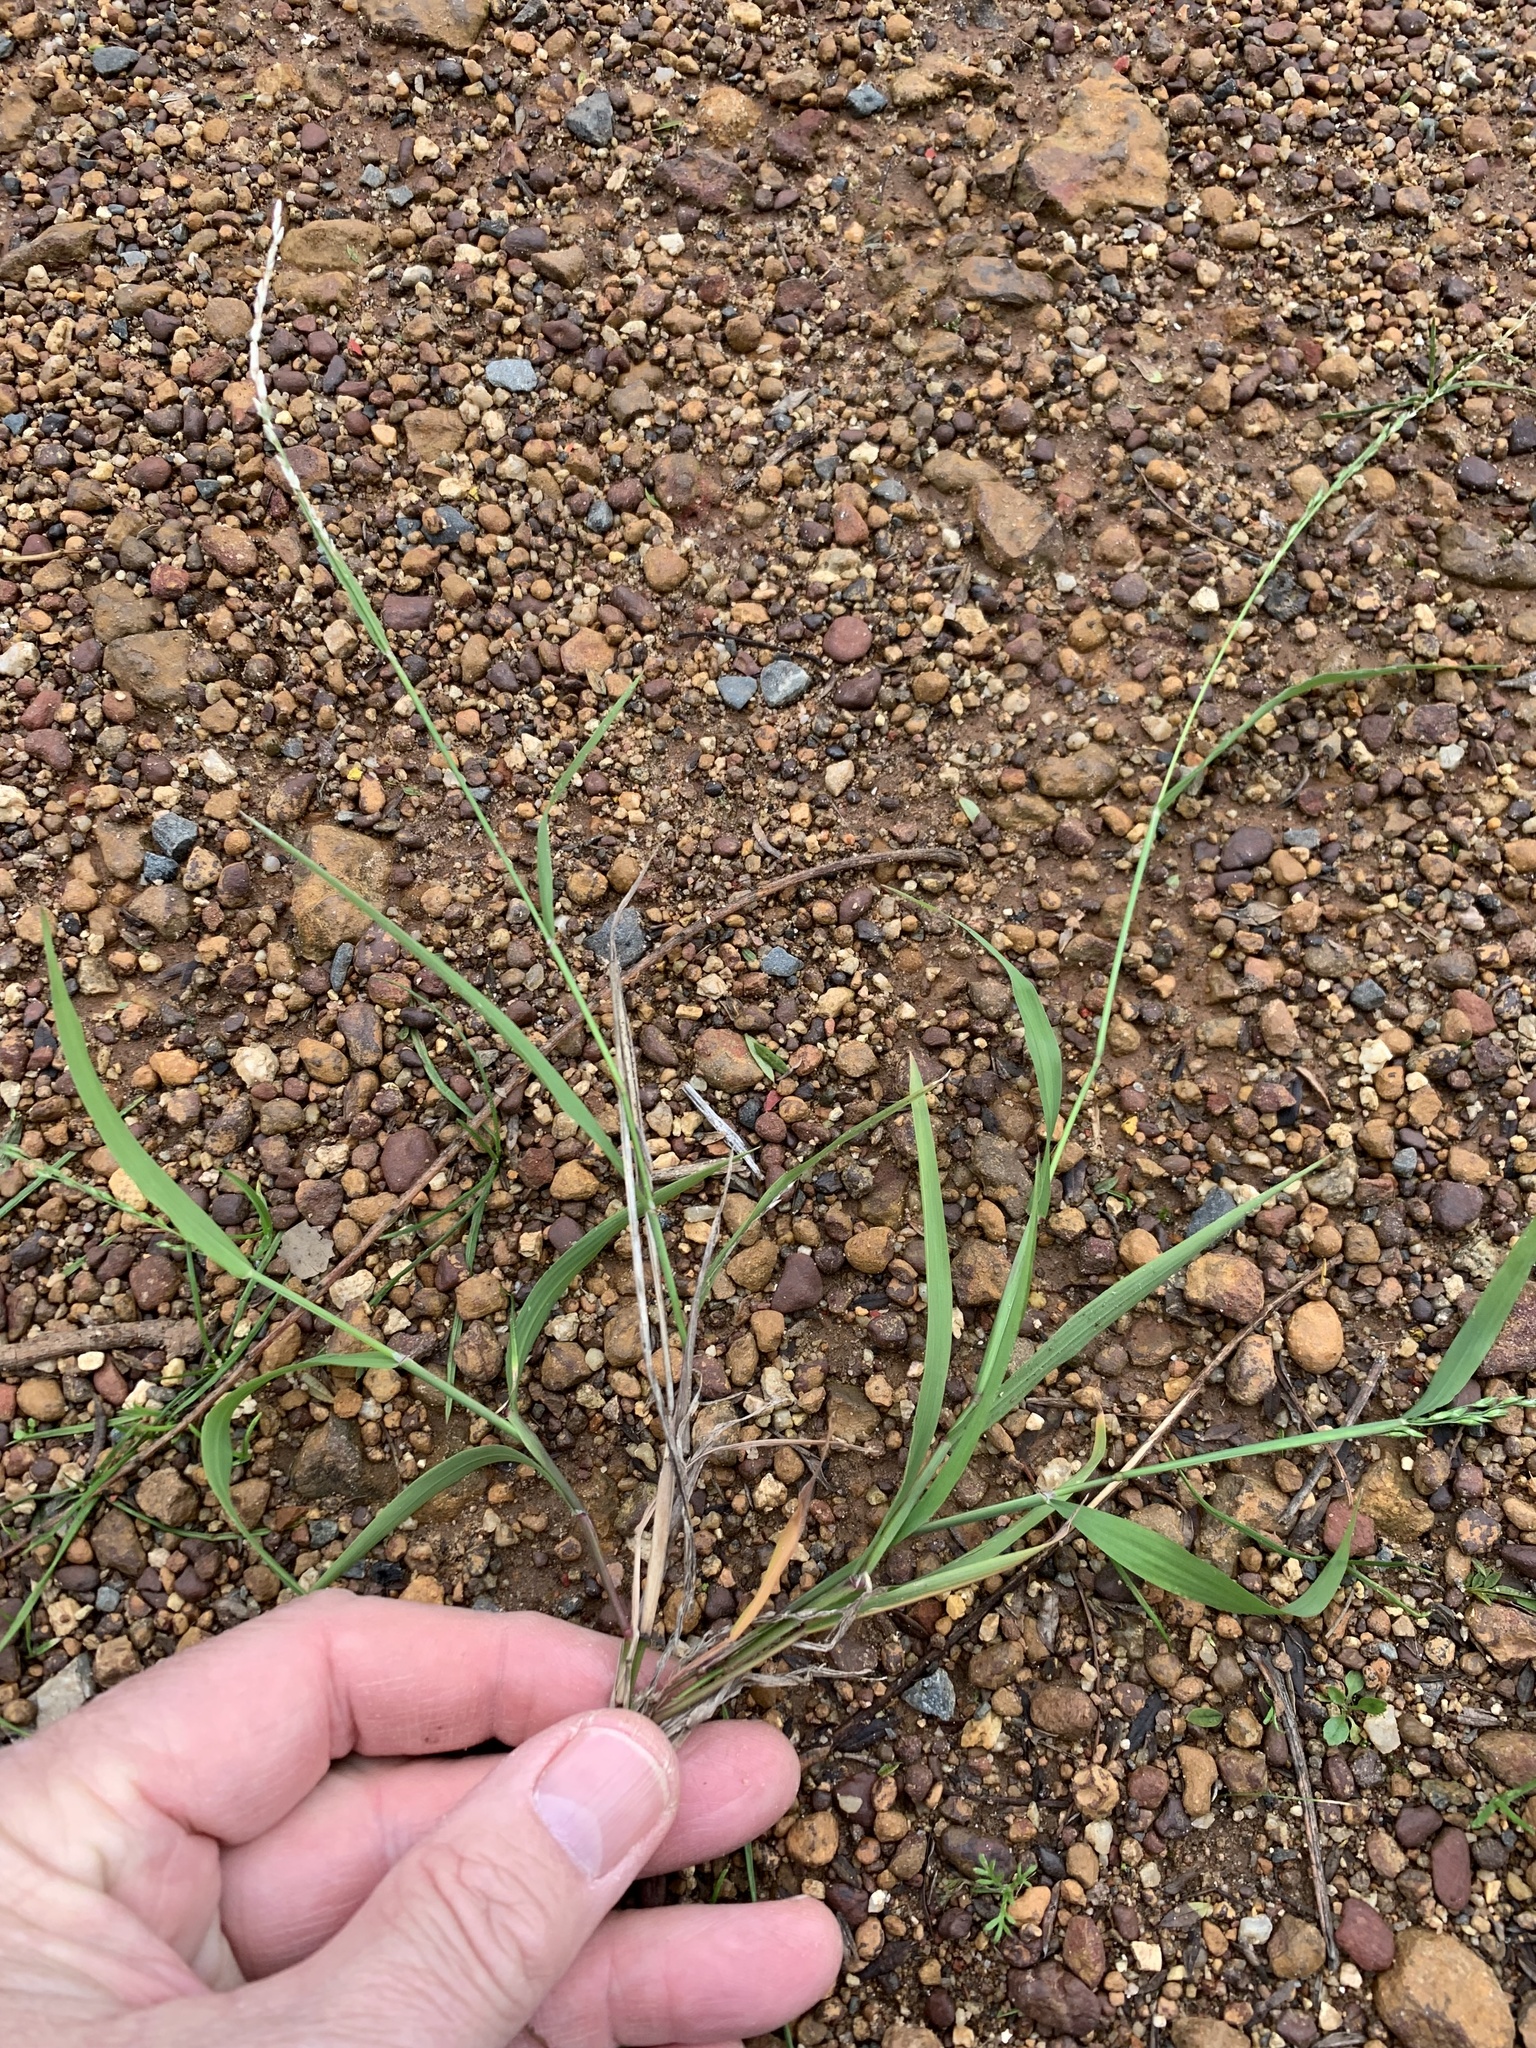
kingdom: Plantae
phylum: Tracheophyta
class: Liliopsida
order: Poales
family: Poaceae
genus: Ehrharta
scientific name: Ehrharta erecta
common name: Panic veldtgrass
